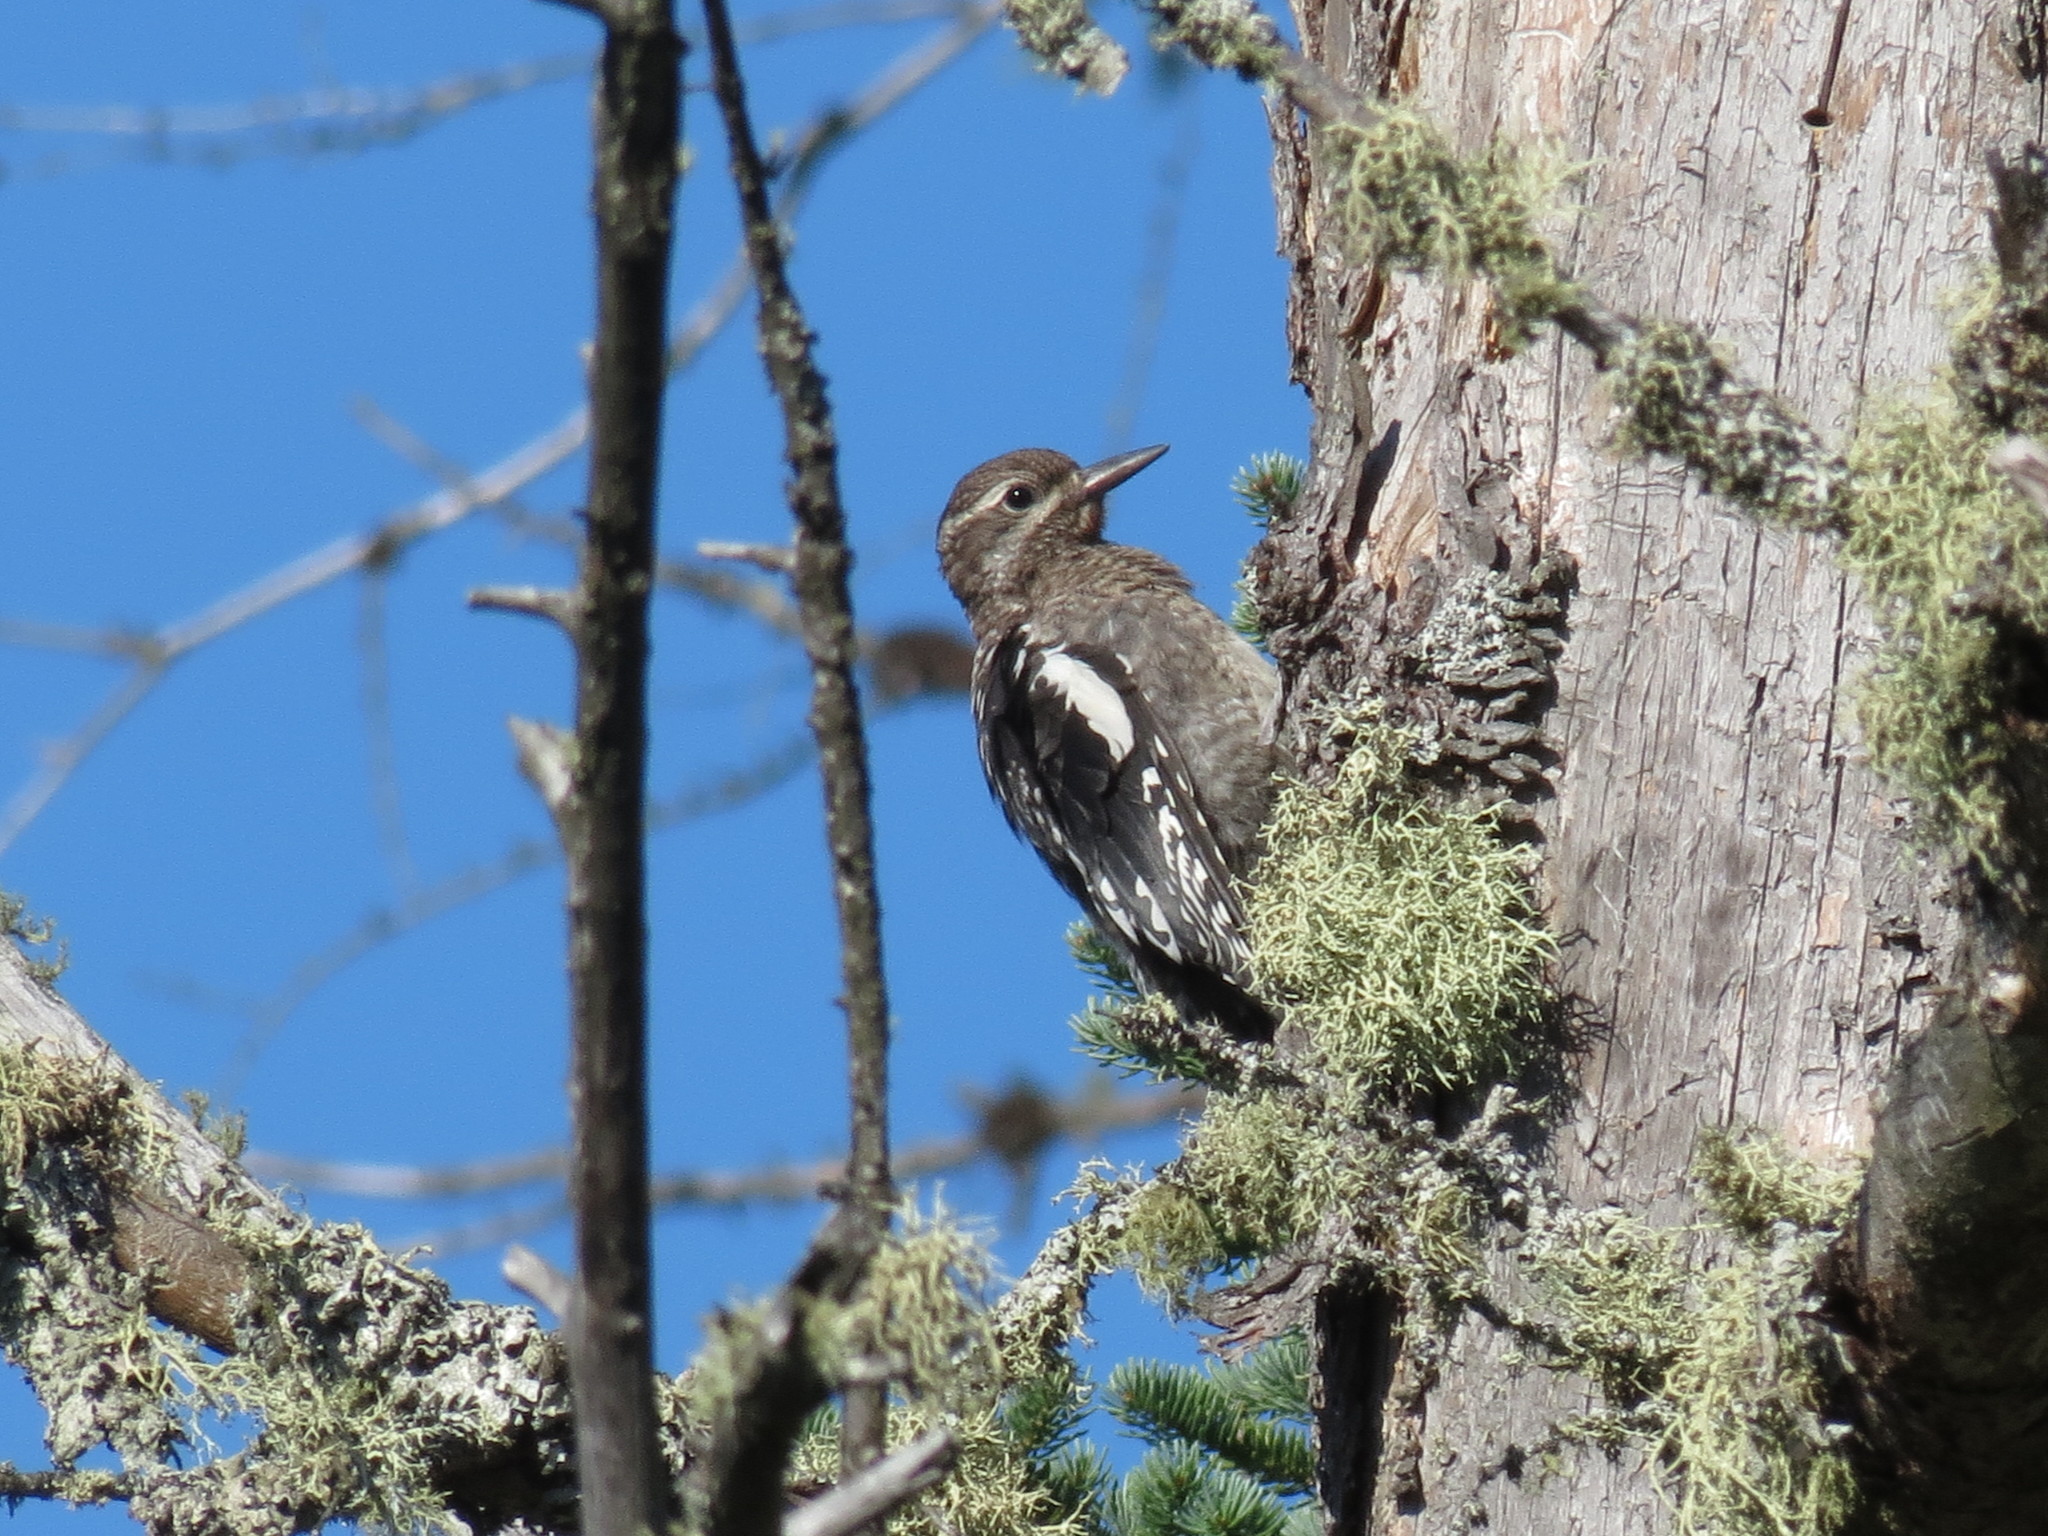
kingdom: Animalia
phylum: Chordata
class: Aves
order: Piciformes
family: Picidae
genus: Sphyrapicus
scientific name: Sphyrapicus varius
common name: Yellow-bellied sapsucker
